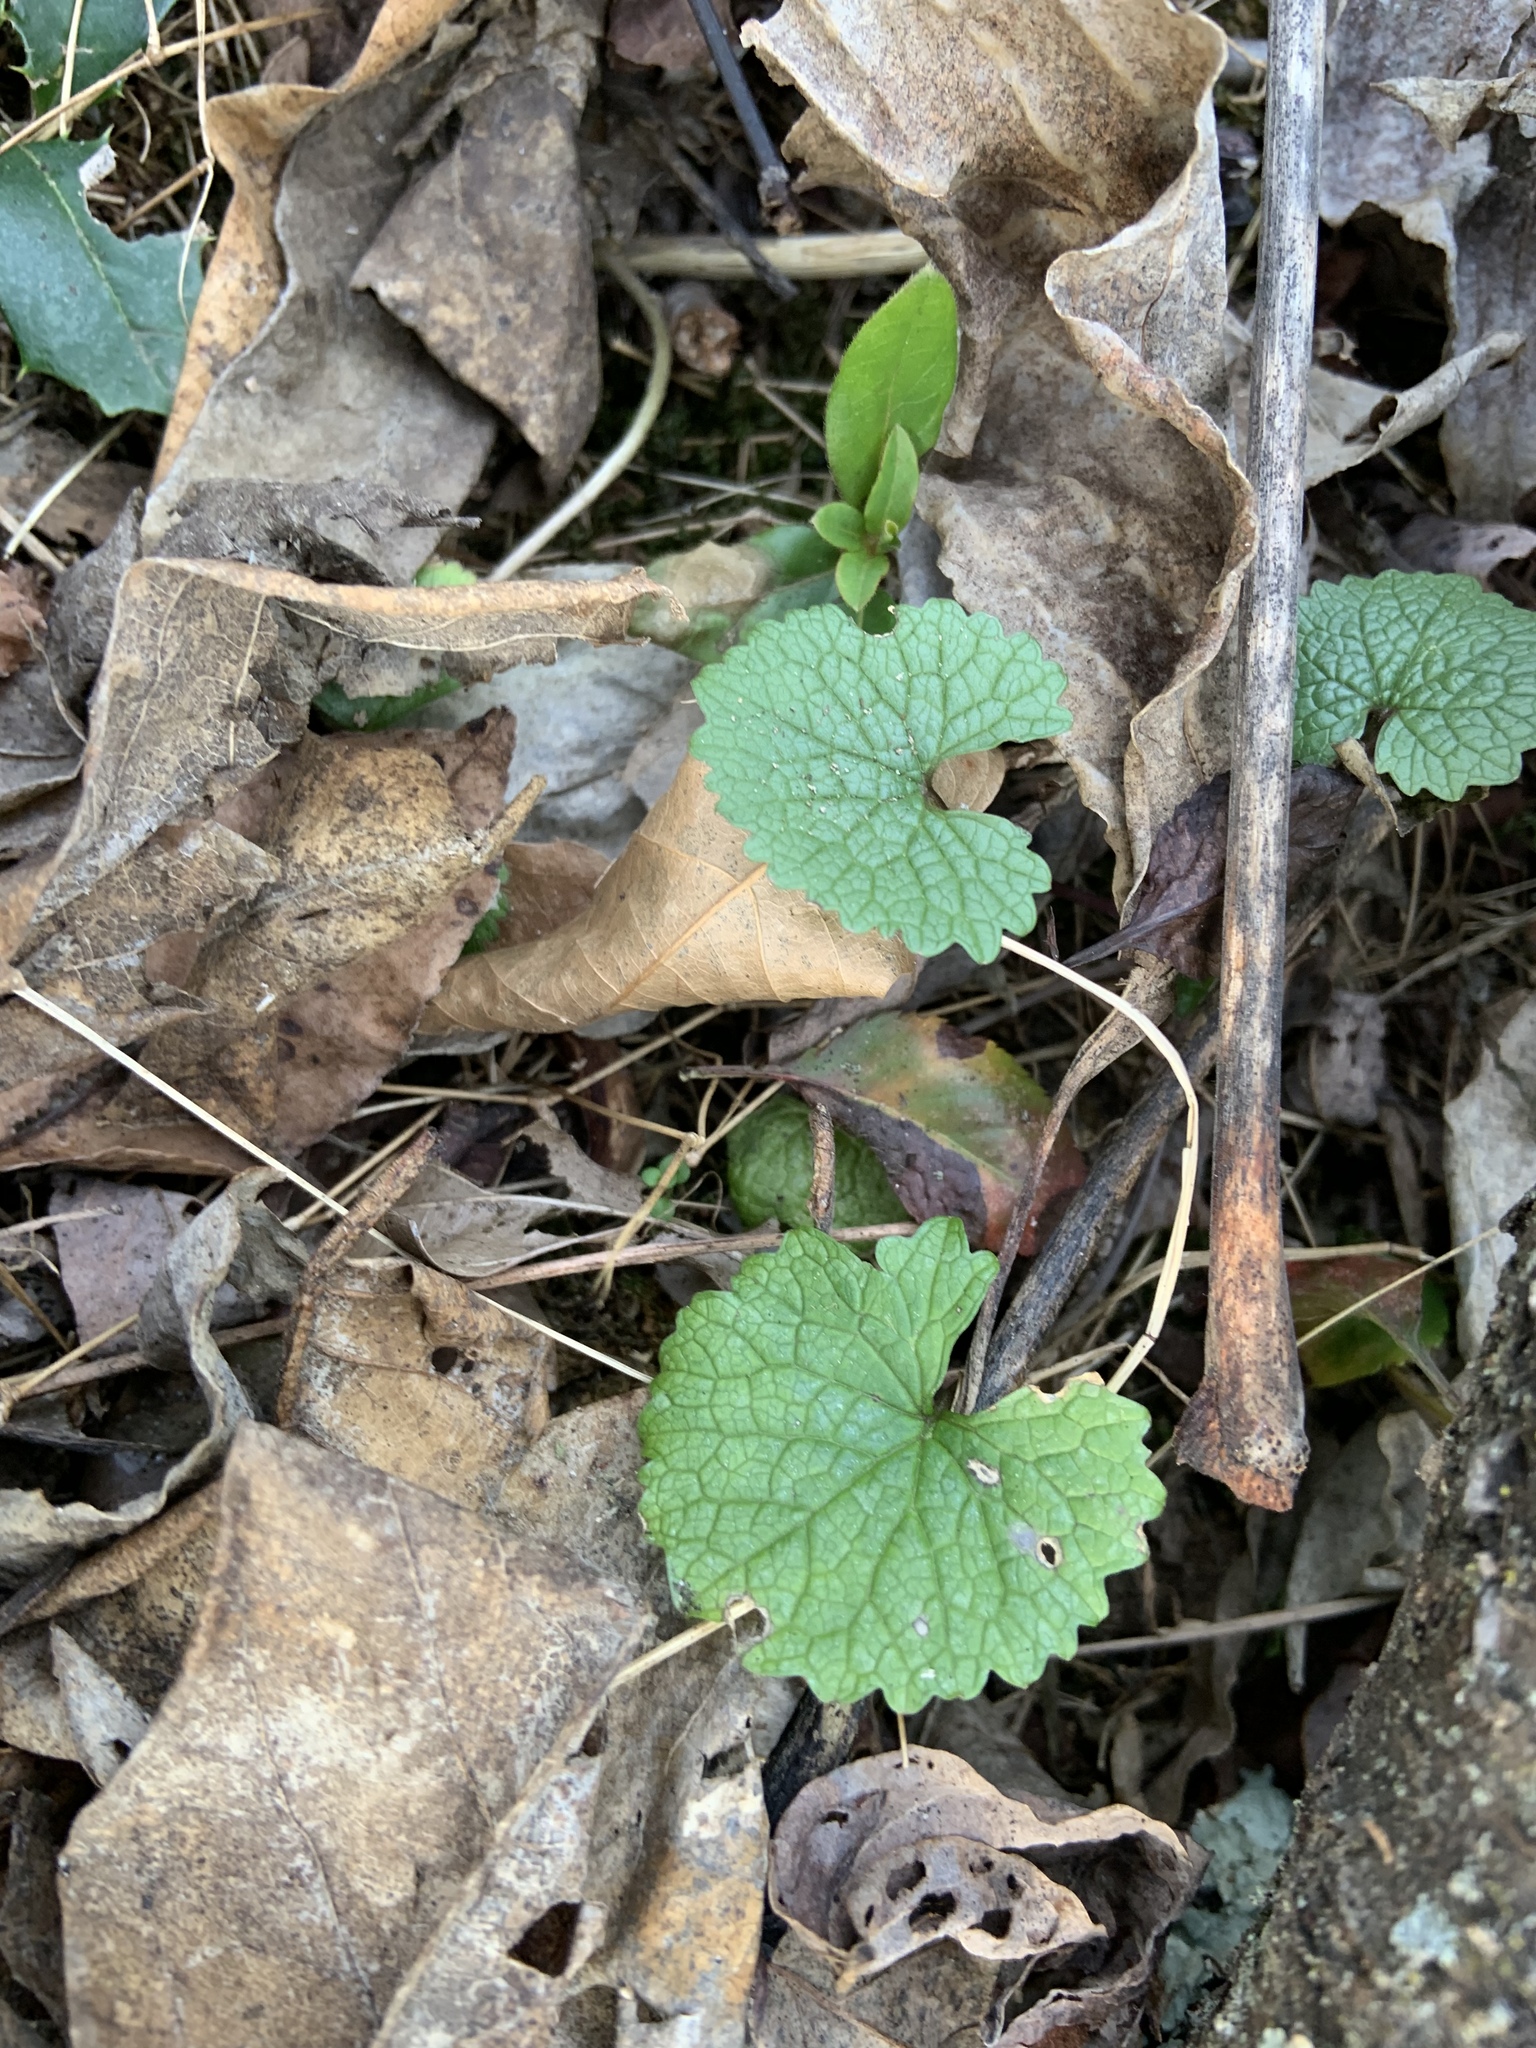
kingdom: Plantae
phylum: Tracheophyta
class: Magnoliopsida
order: Brassicales
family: Brassicaceae
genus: Alliaria
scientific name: Alliaria petiolata
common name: Garlic mustard
